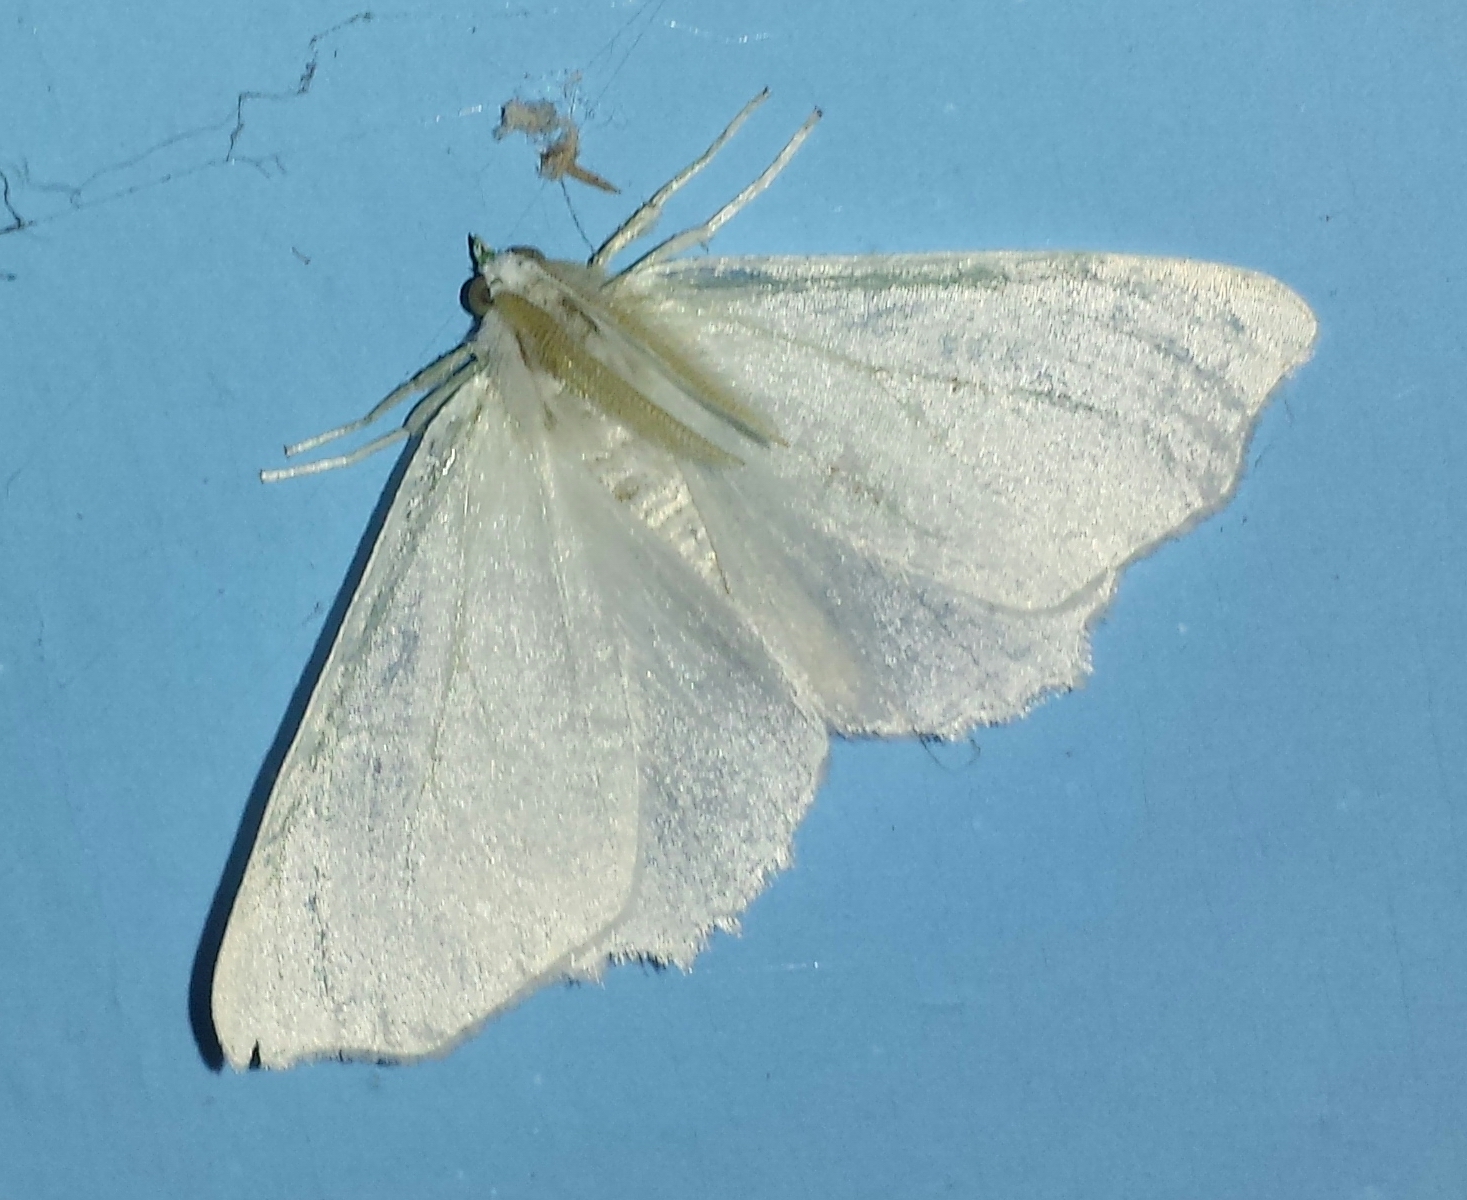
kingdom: Animalia
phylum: Arthropoda
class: Insecta
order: Lepidoptera
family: Geometridae
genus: Ennomos
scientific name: Ennomos subsignaria
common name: Elm spanworm
